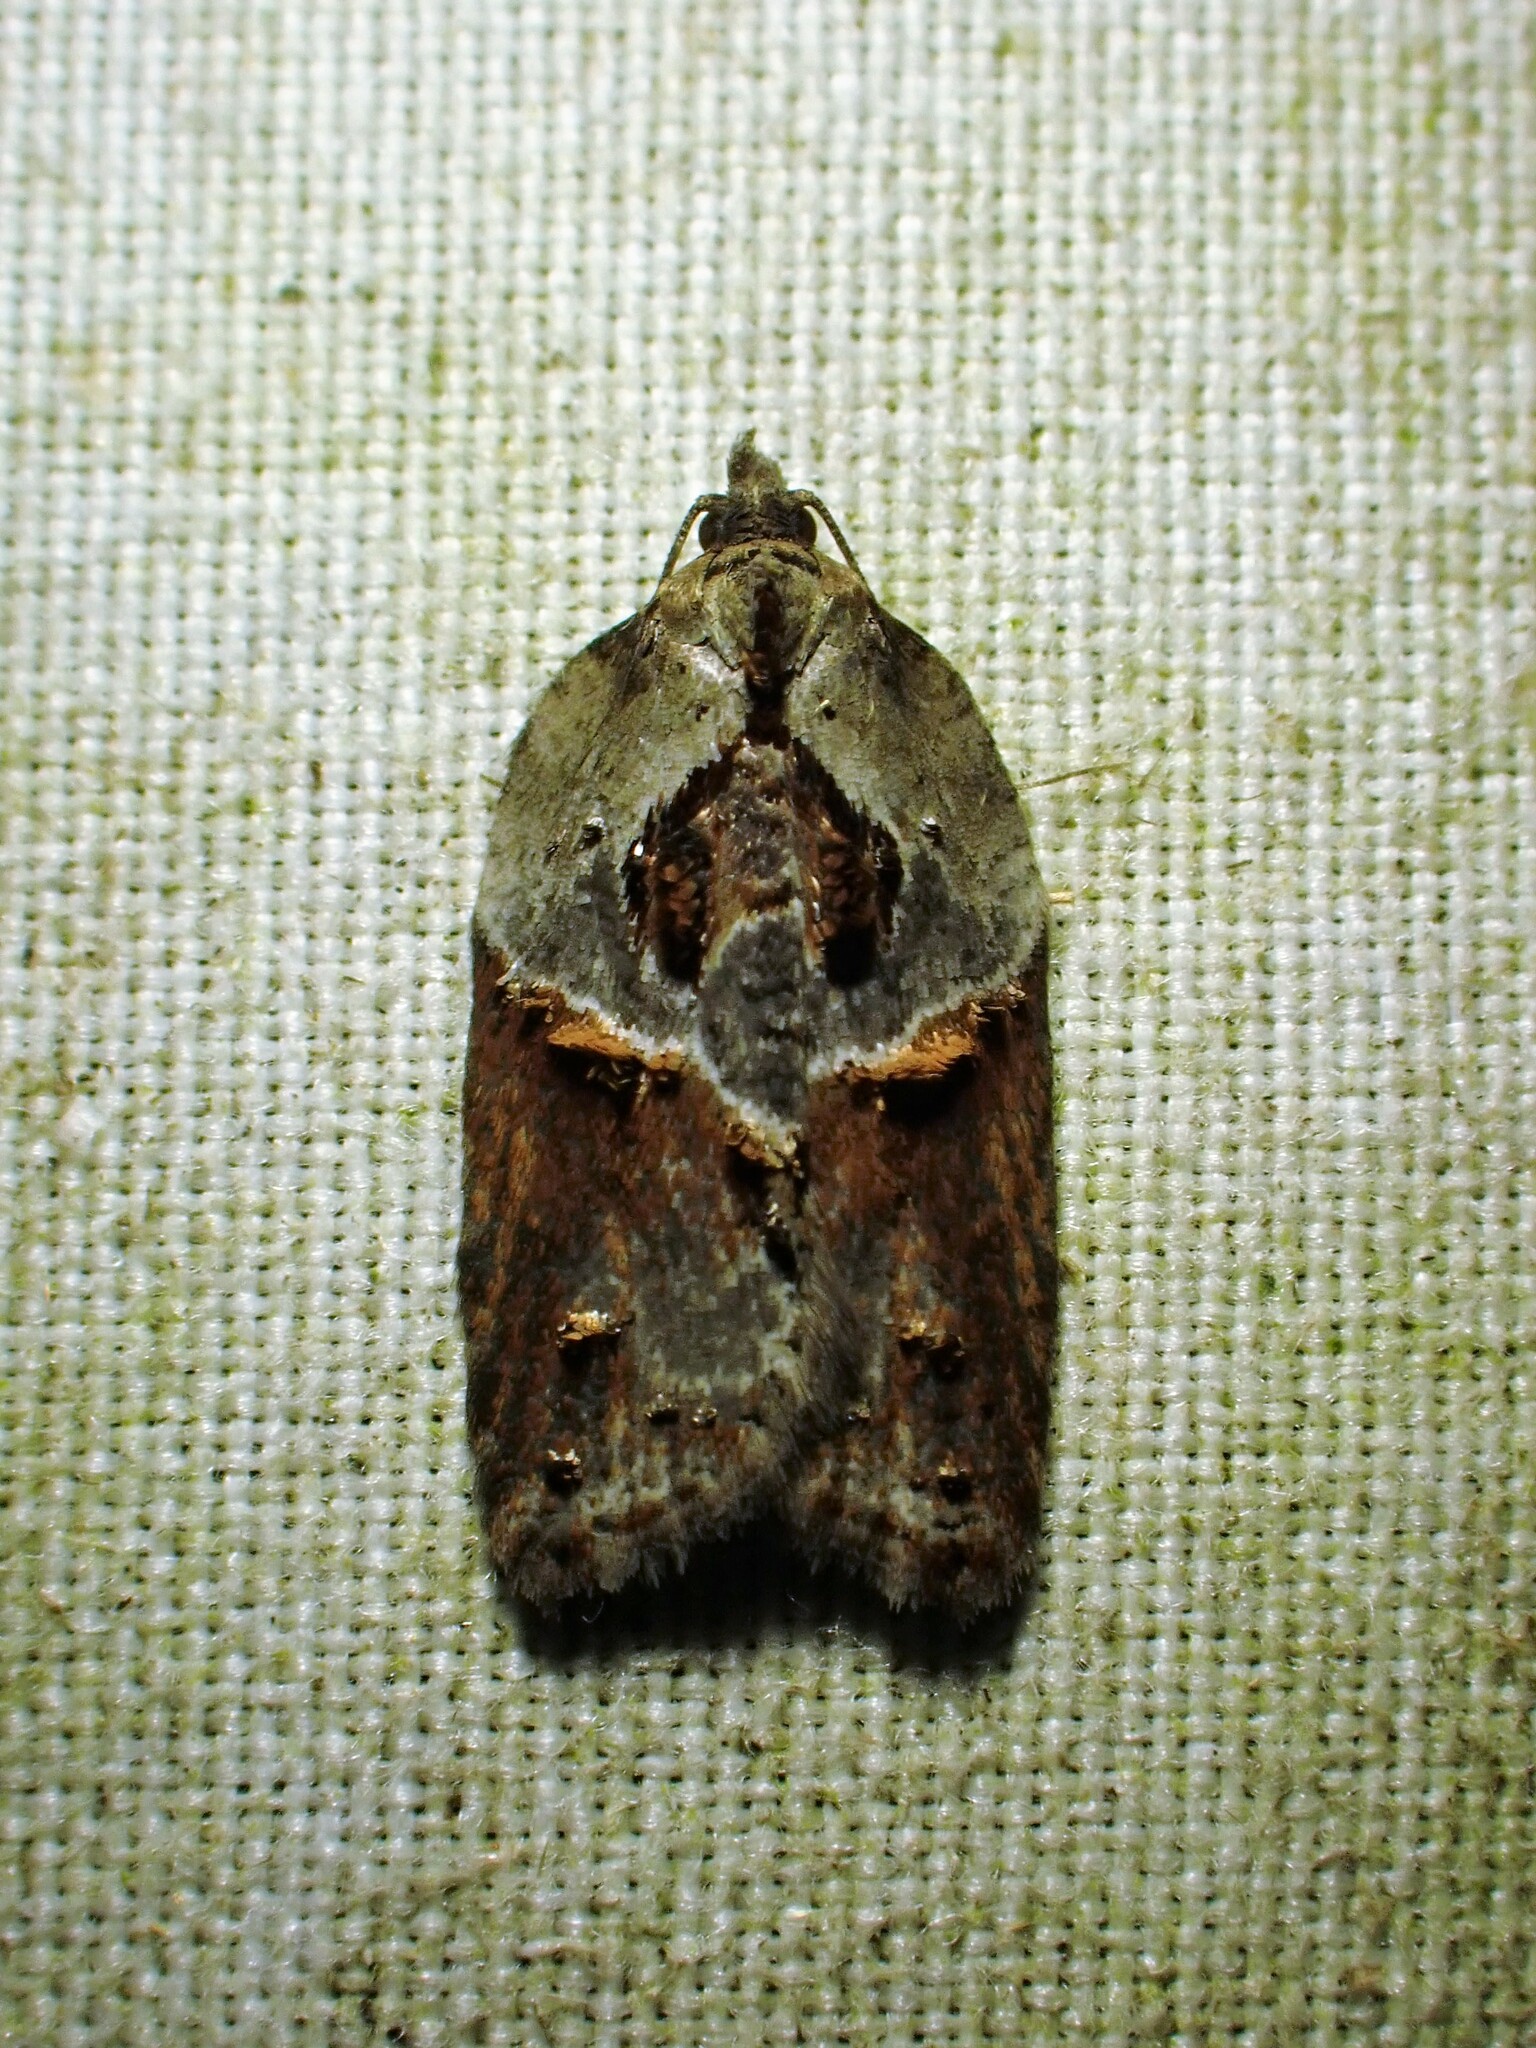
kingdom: Animalia
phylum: Arthropoda
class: Insecta
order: Lepidoptera
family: Tortricidae
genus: Acleris
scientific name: Acleris inana
